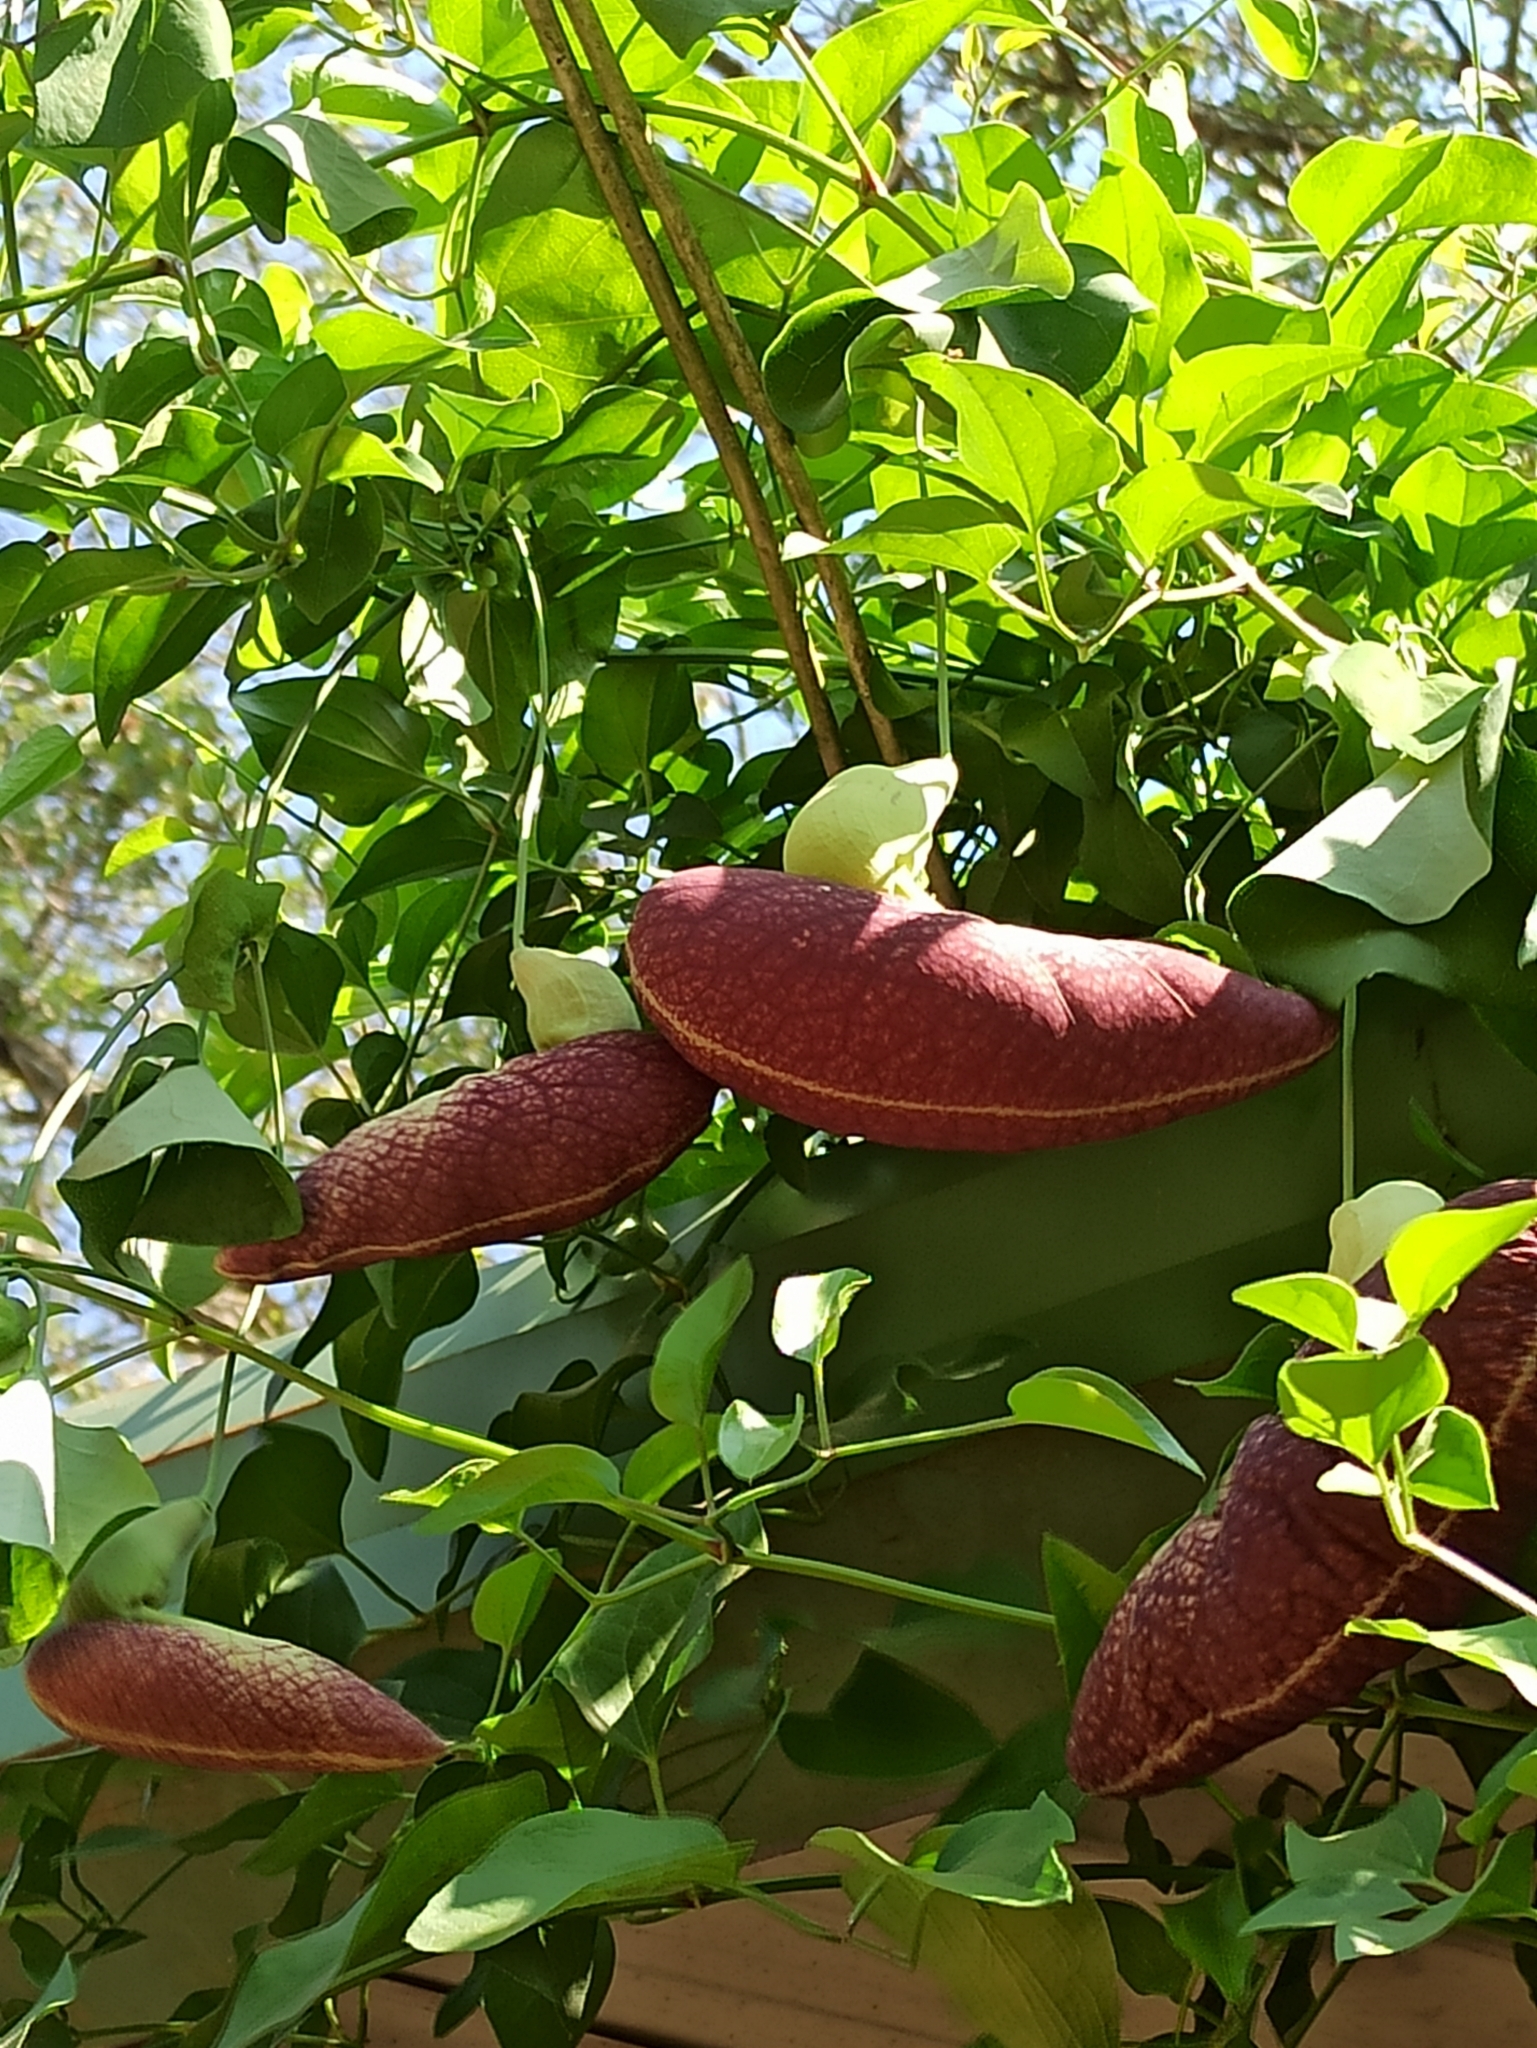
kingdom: Plantae
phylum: Tracheophyta
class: Magnoliopsida
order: Piperales
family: Aristolochiaceae
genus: Aristolochia
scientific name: Aristolochia littoralis
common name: Duck
